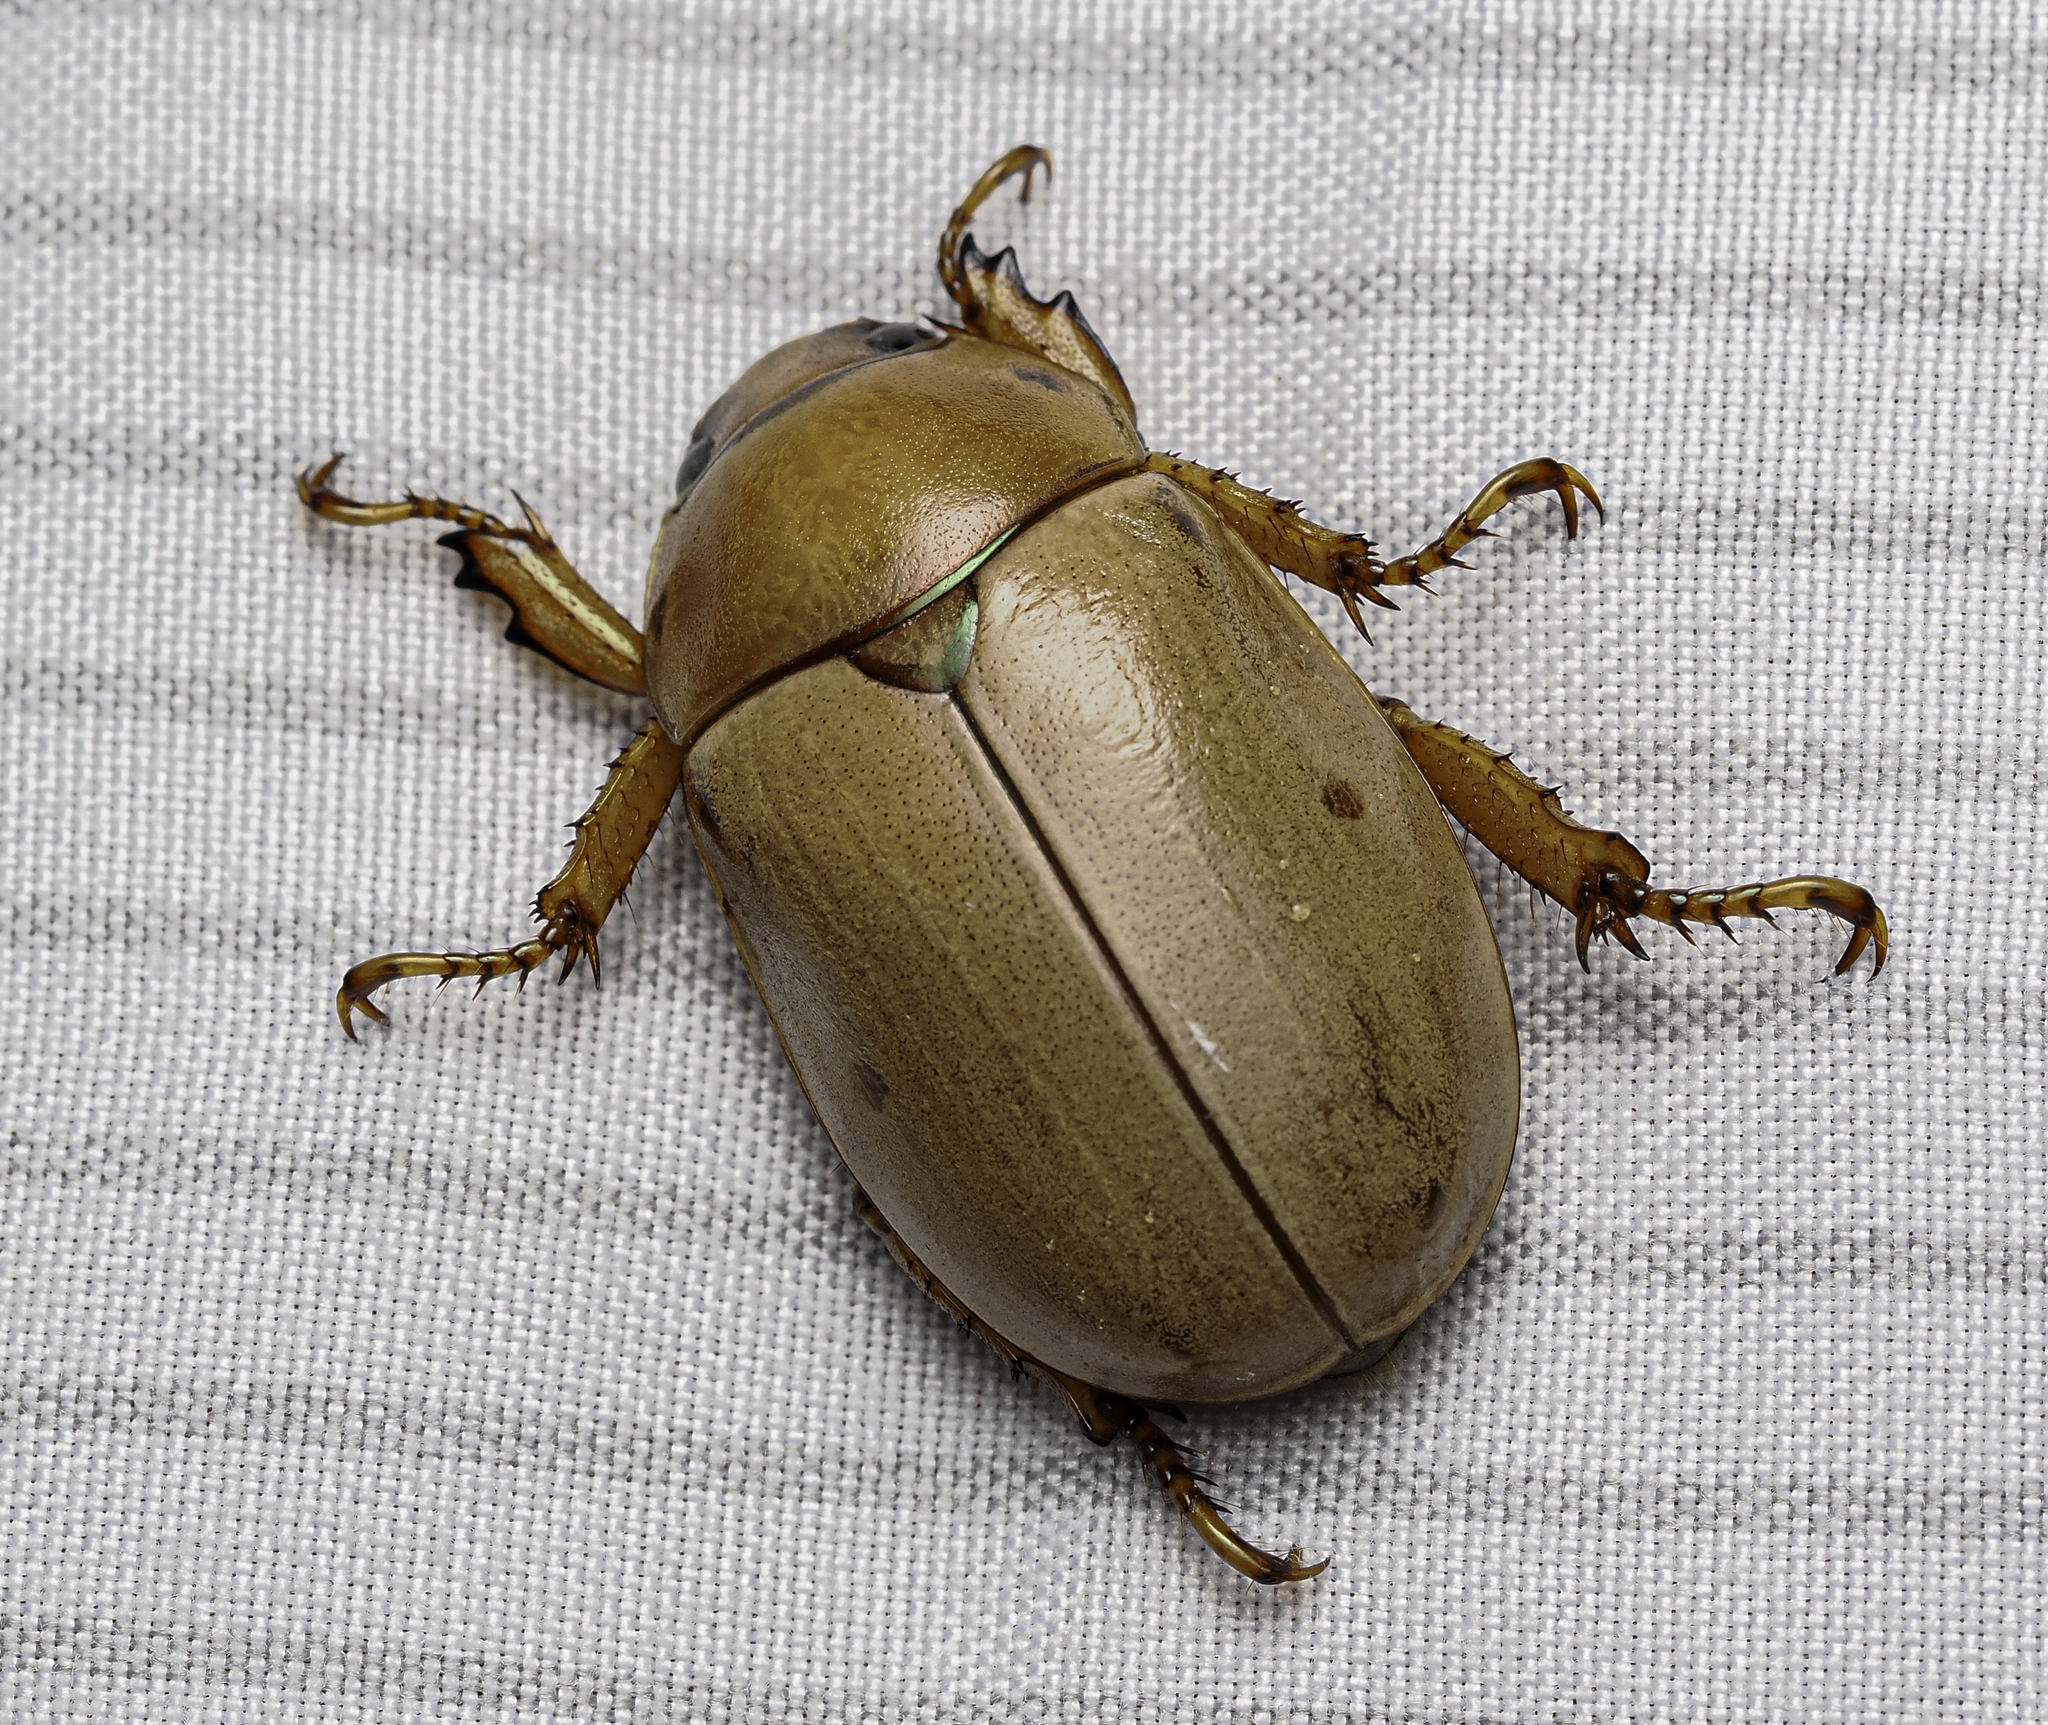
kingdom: Animalia
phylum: Arthropoda
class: Insecta
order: Coleoptera
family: Scarabaeidae
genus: Pelidnota
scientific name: Pelidnota punctata
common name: Grapevine beetle
